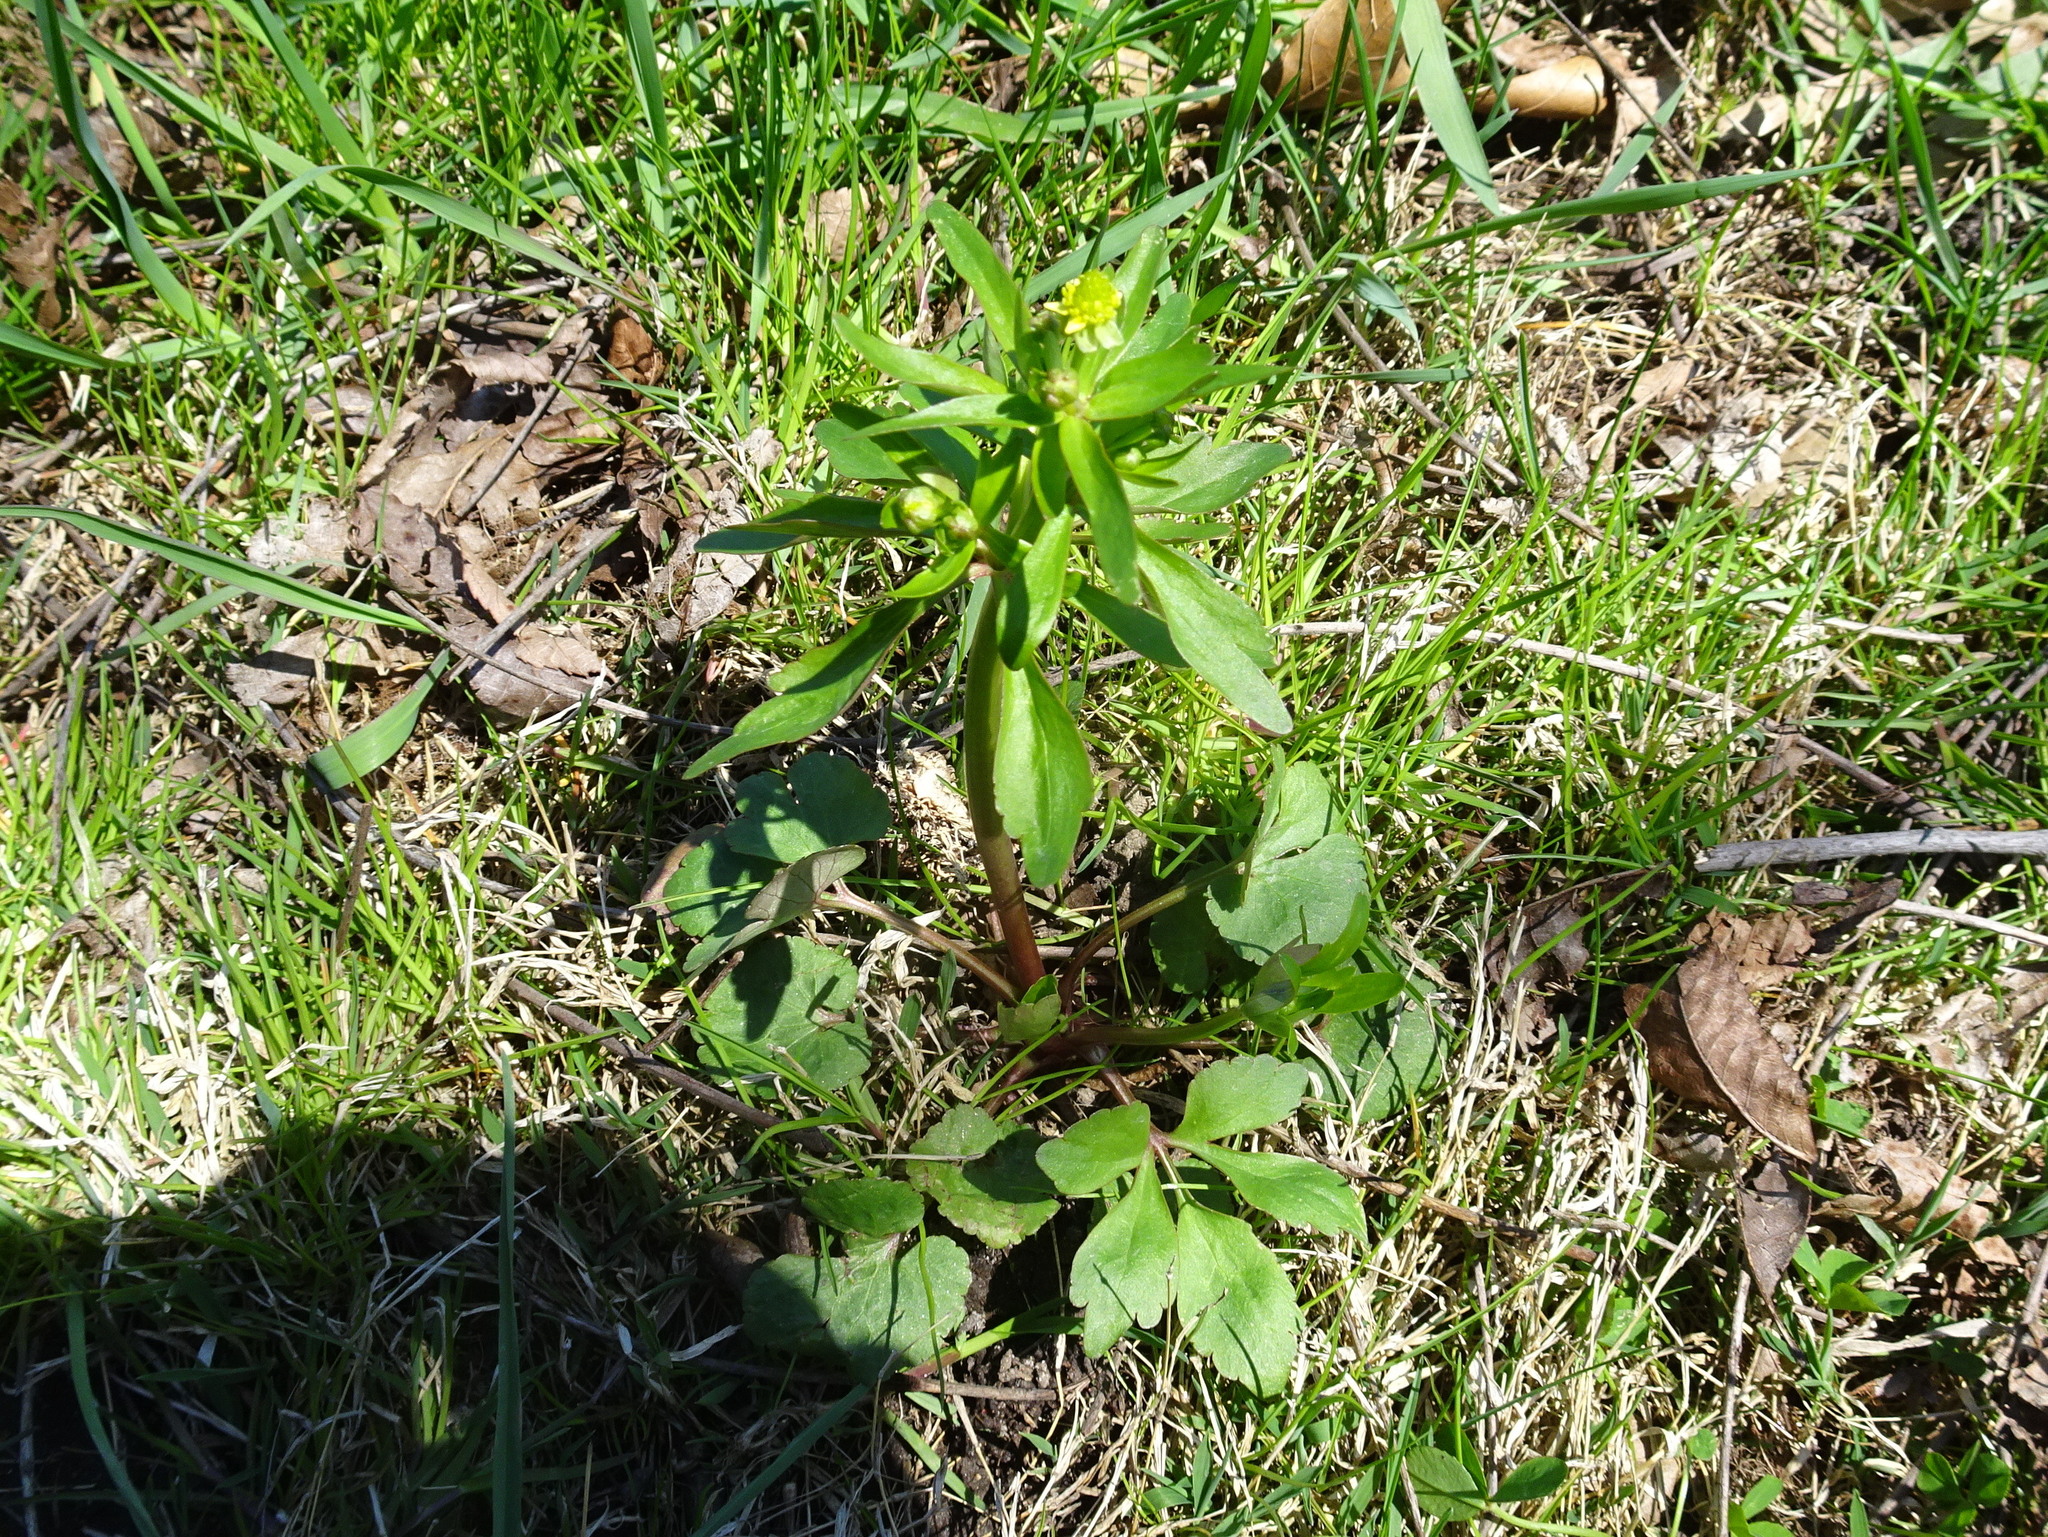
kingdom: Plantae
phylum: Tracheophyta
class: Magnoliopsida
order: Ranunculales
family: Ranunculaceae
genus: Ranunculus
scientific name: Ranunculus abortivus
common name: Early wood buttercup
